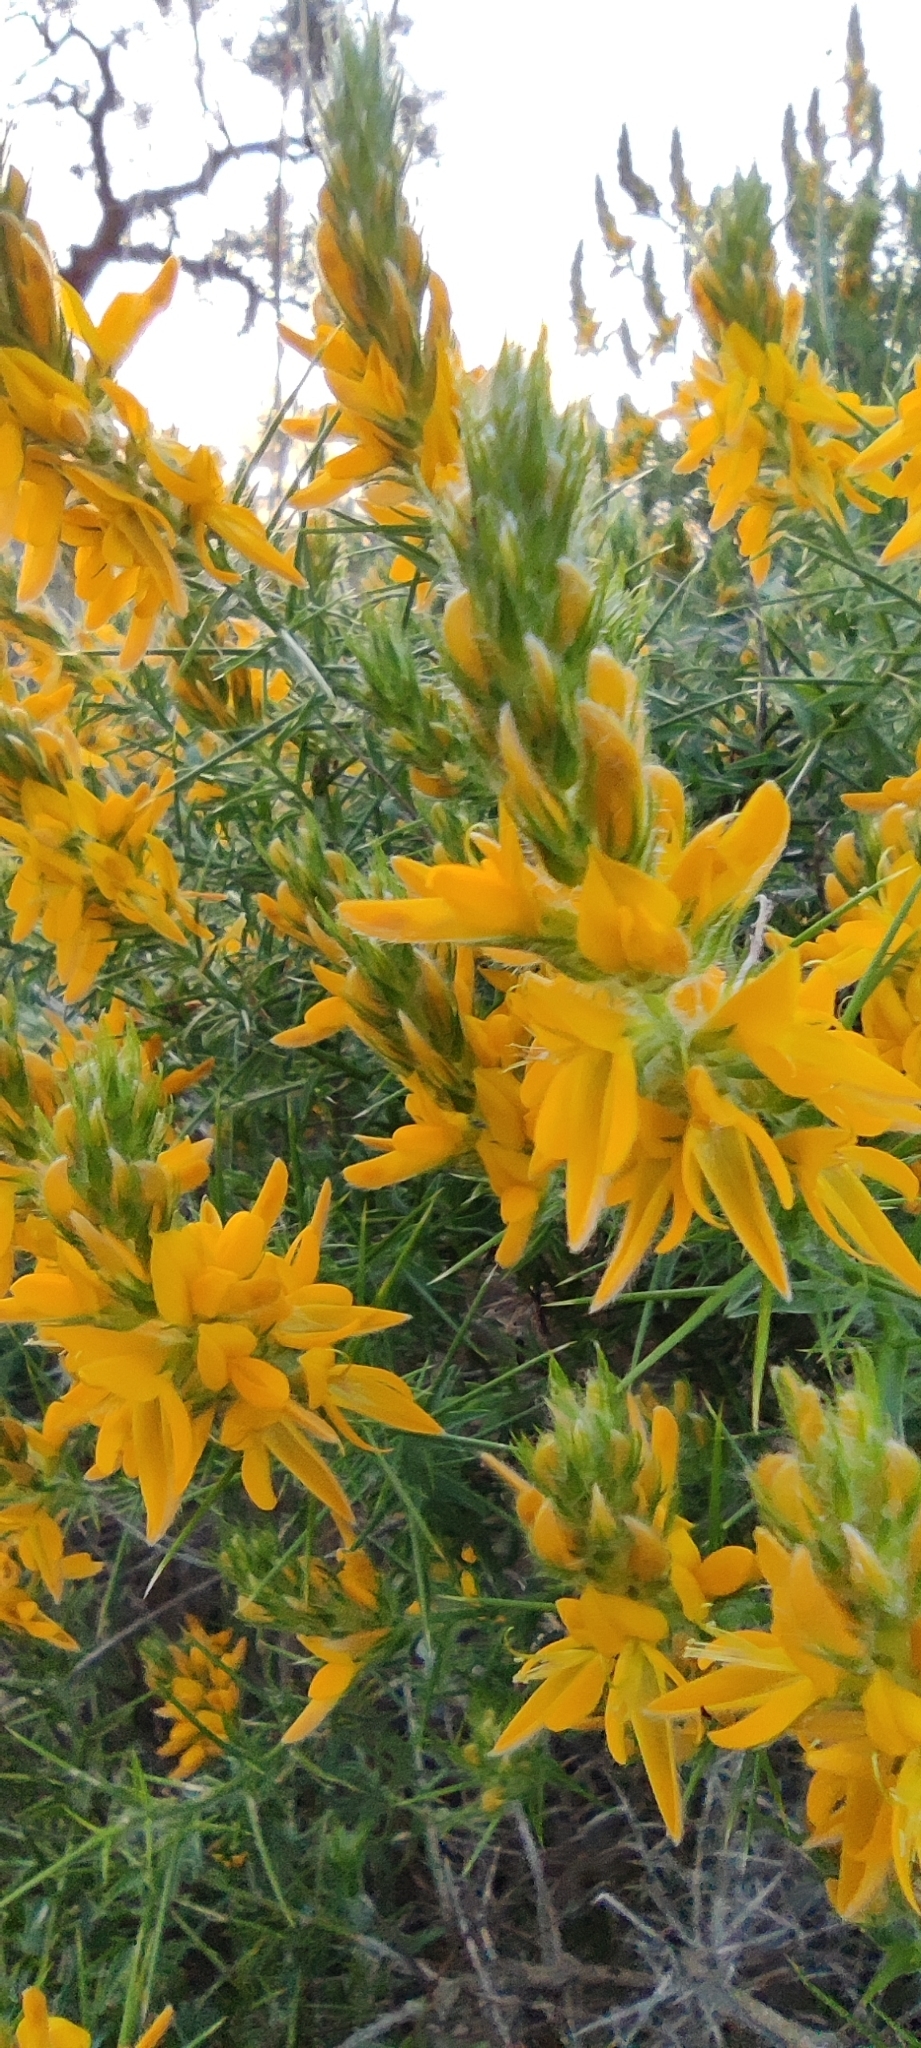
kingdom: Plantae
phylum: Tracheophyta
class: Magnoliopsida
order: Fabales
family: Fabaceae
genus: Genista
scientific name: Genista hirsuta
